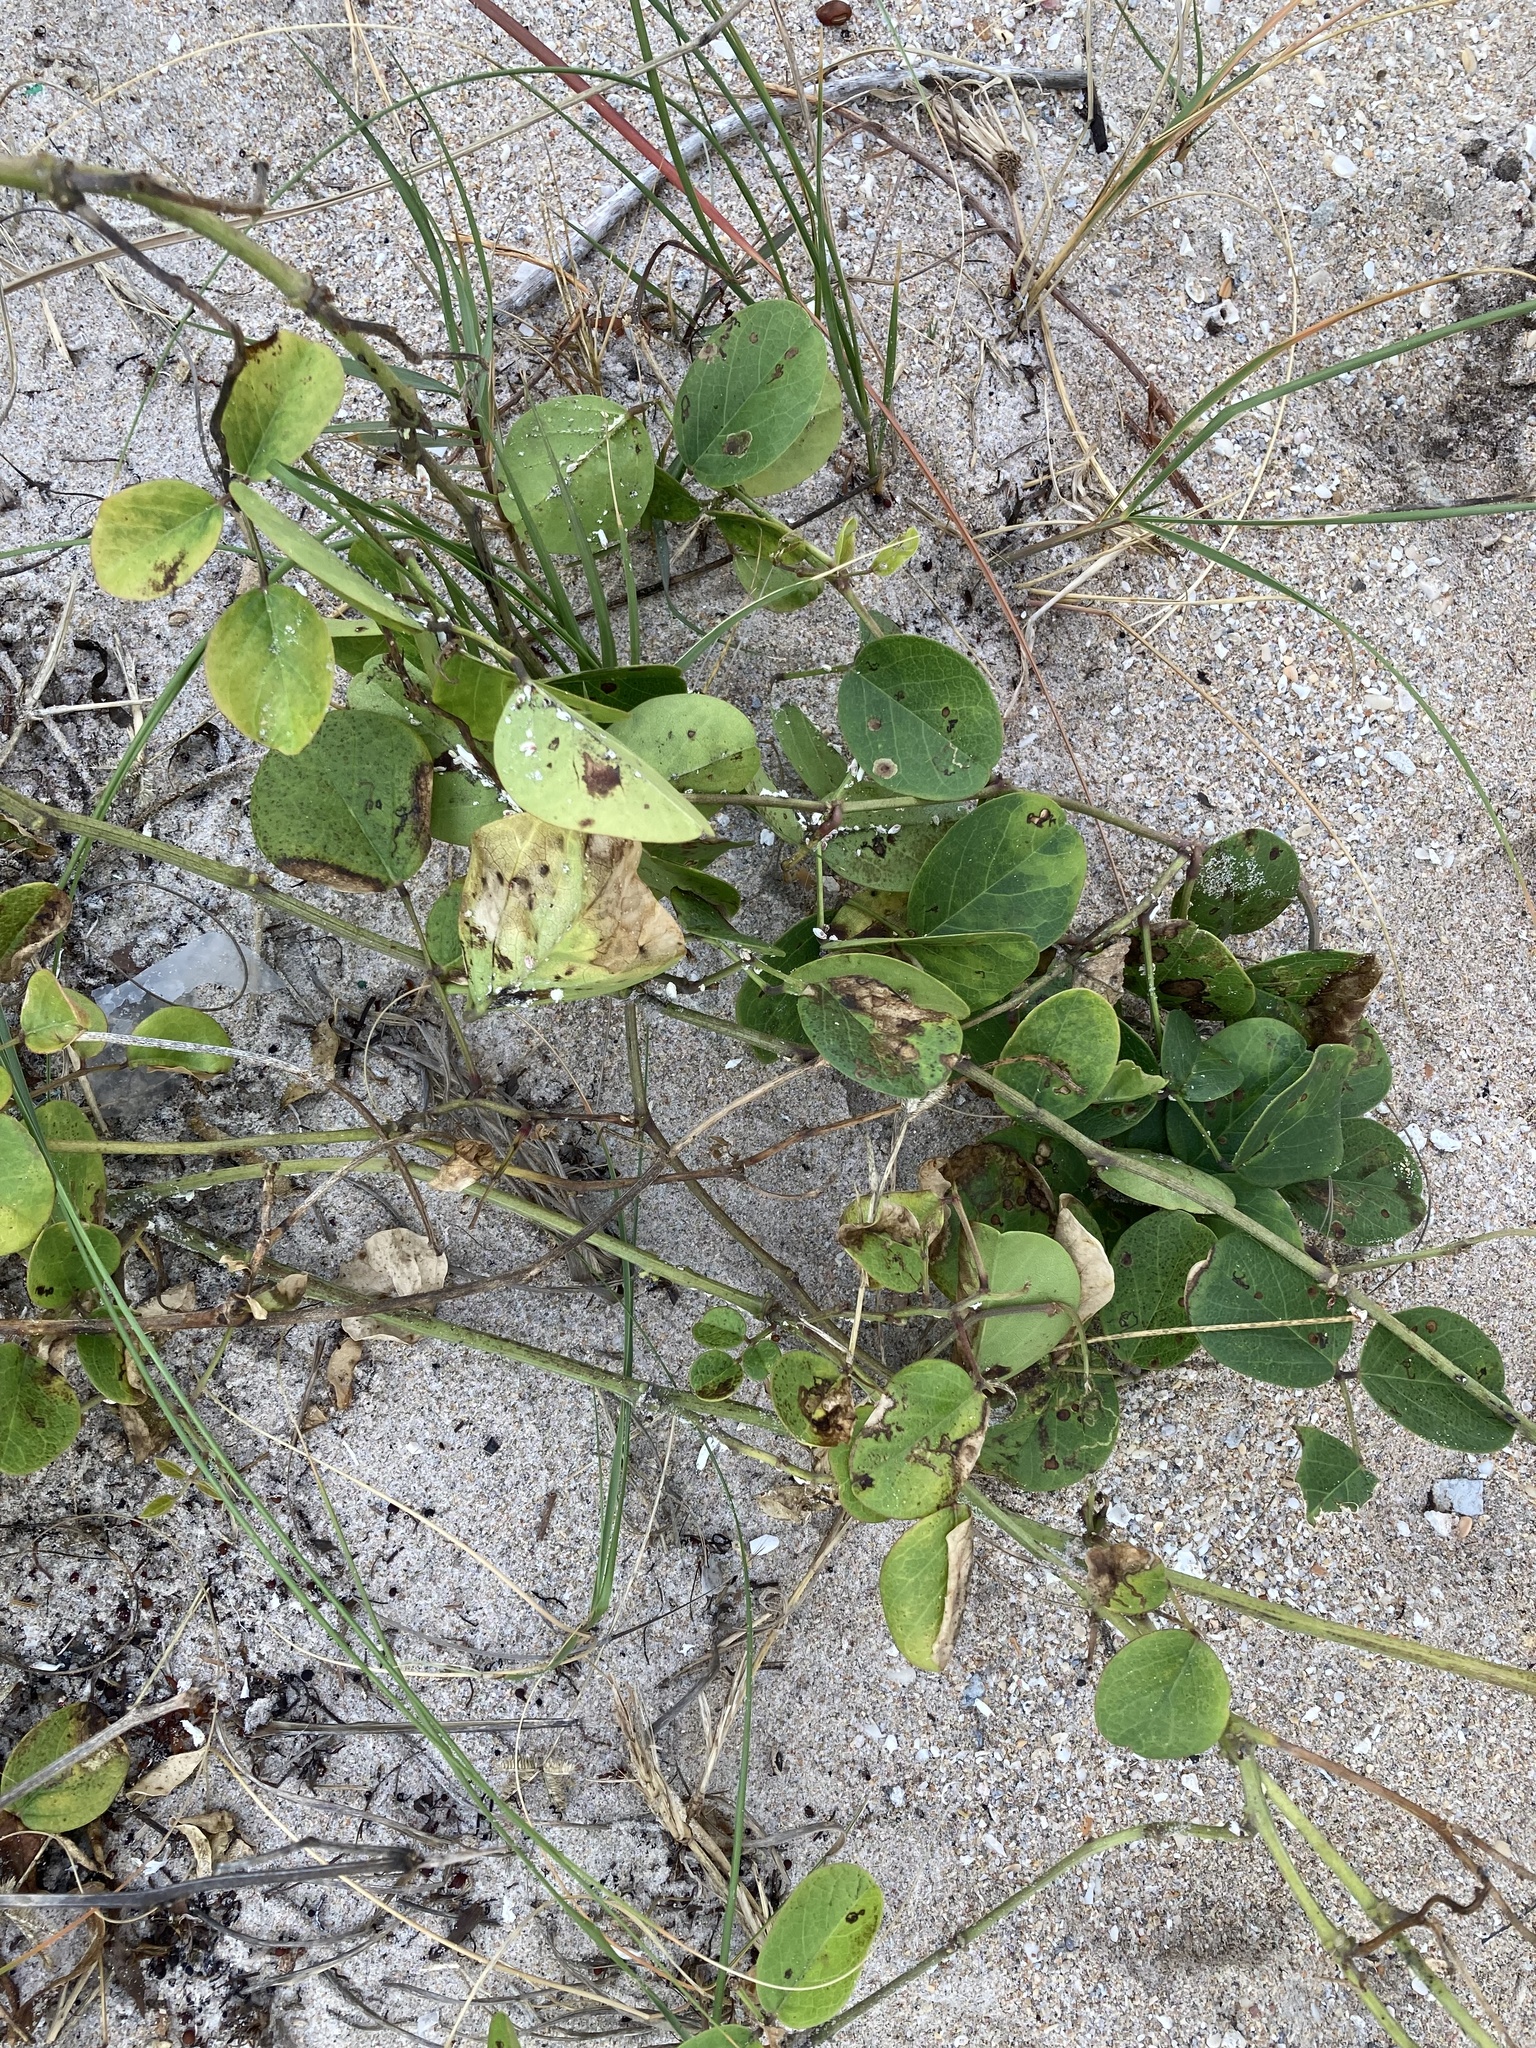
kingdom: Plantae
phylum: Tracheophyta
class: Magnoliopsida
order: Fabales
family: Fabaceae
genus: Canavalia
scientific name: Canavalia rosea
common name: Beach-bean
